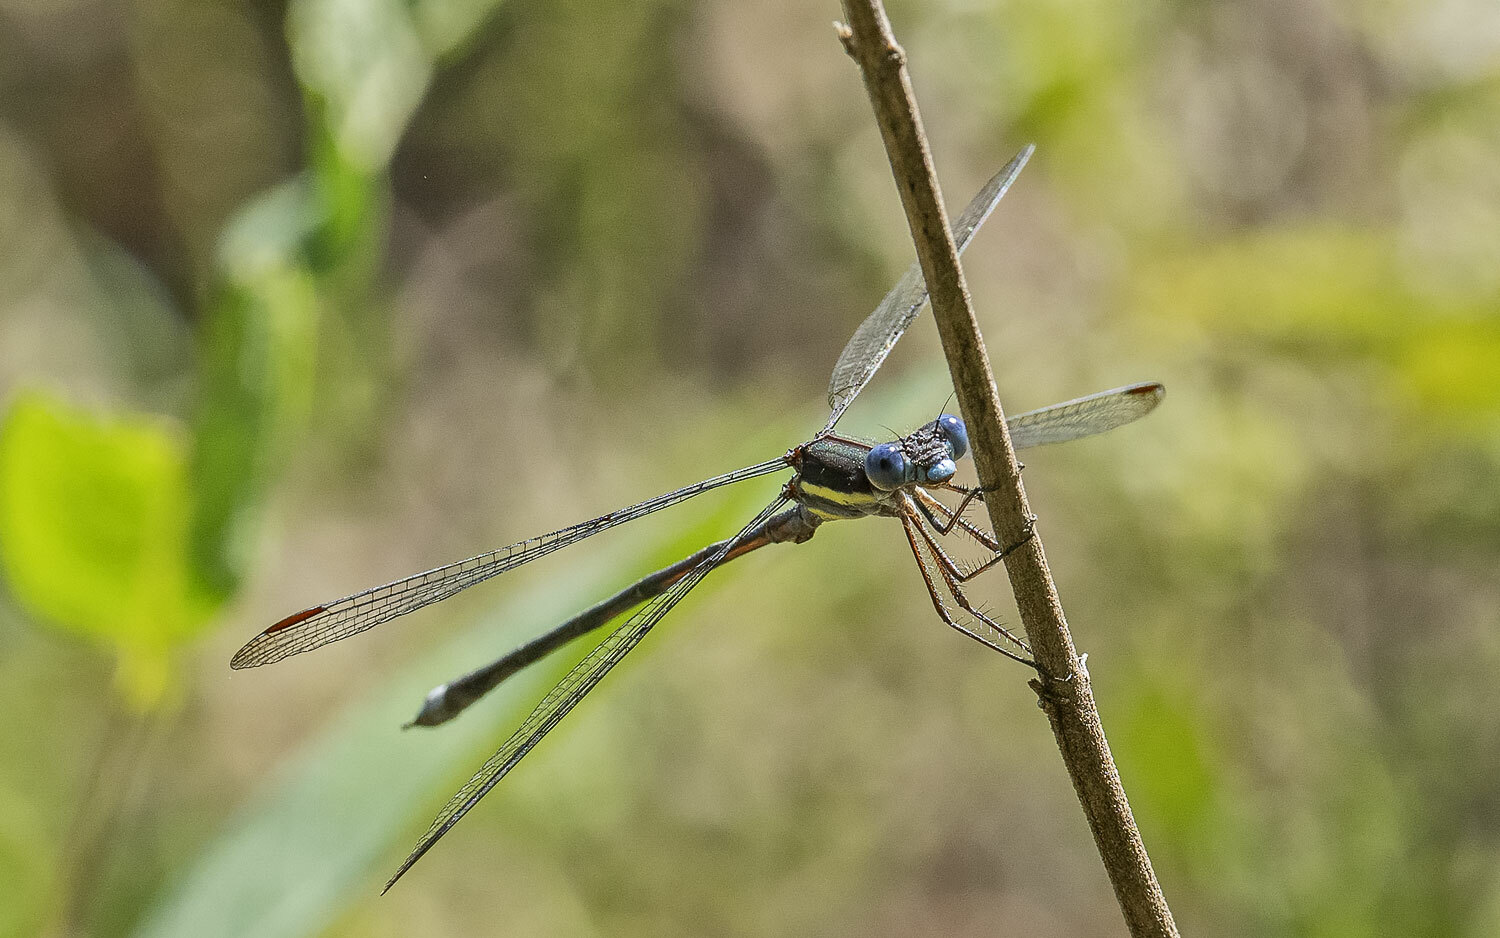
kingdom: Animalia
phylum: Arthropoda
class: Insecta
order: Odonata
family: Lestidae
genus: Archilestes
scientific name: Archilestes grandis
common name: Great spreadwing
